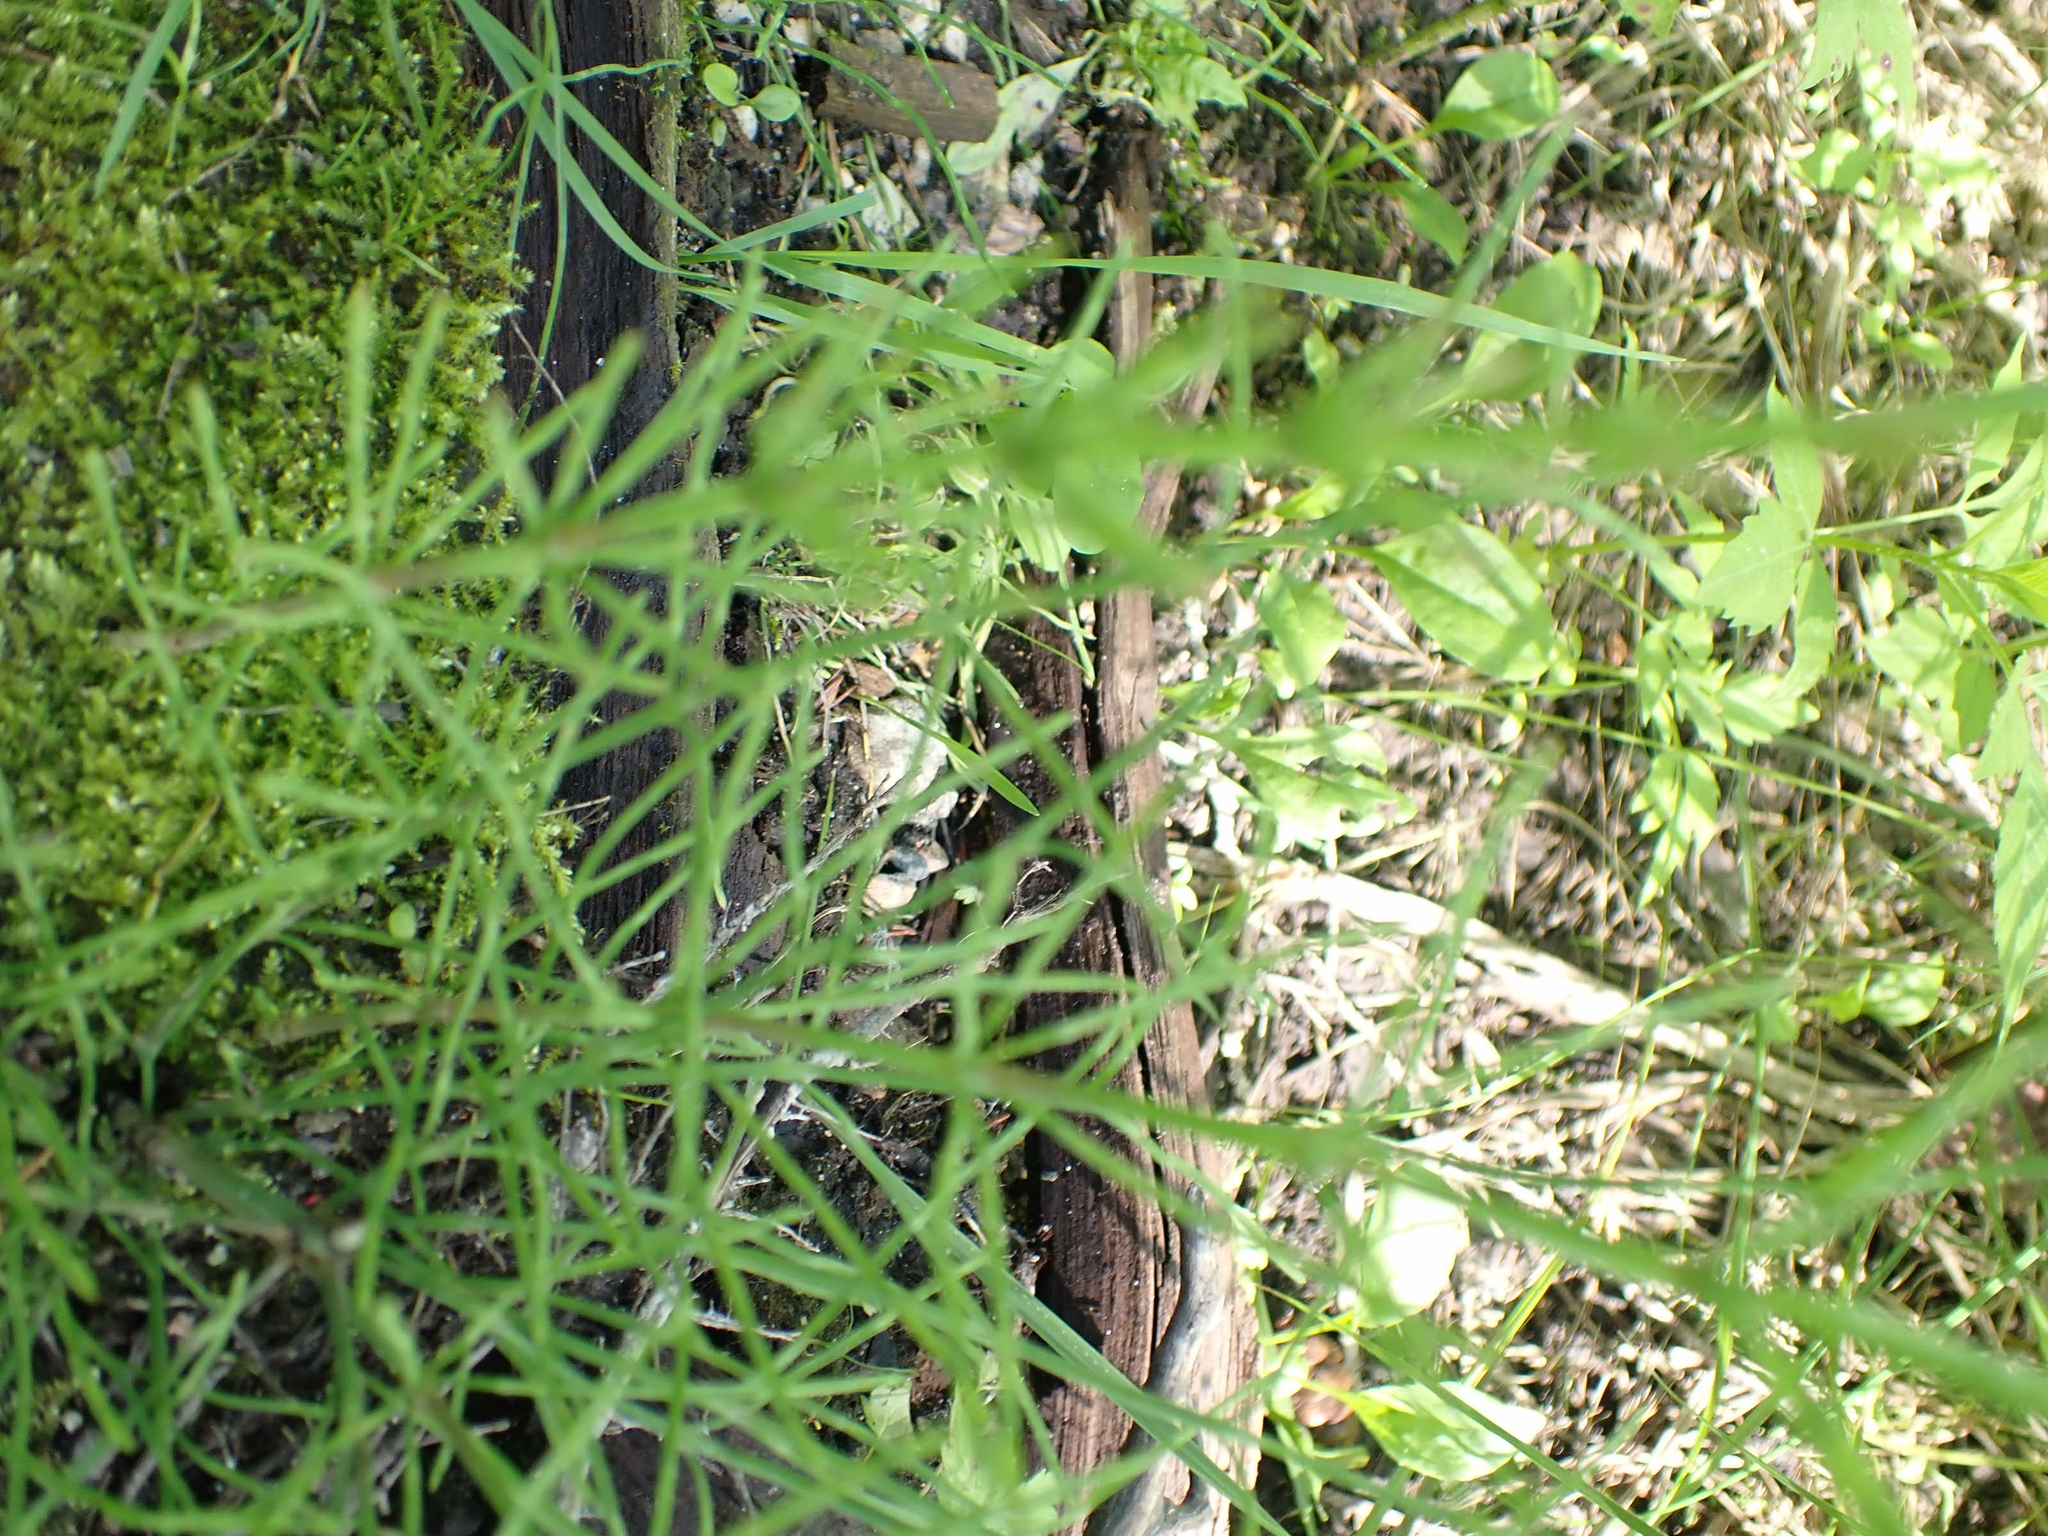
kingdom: Plantae
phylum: Tracheophyta
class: Polypodiopsida
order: Equisetales
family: Equisetaceae
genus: Equisetum
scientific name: Equisetum arvense
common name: Field horsetail
